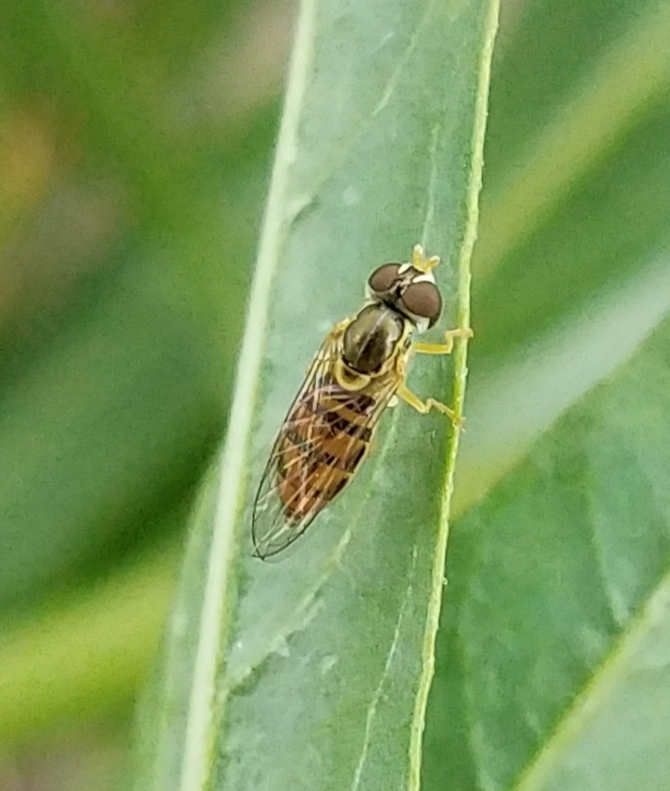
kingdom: Animalia
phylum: Arthropoda
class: Insecta
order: Diptera
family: Syrphidae
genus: Toxomerus
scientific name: Toxomerus marginatus
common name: Syrphid fly
